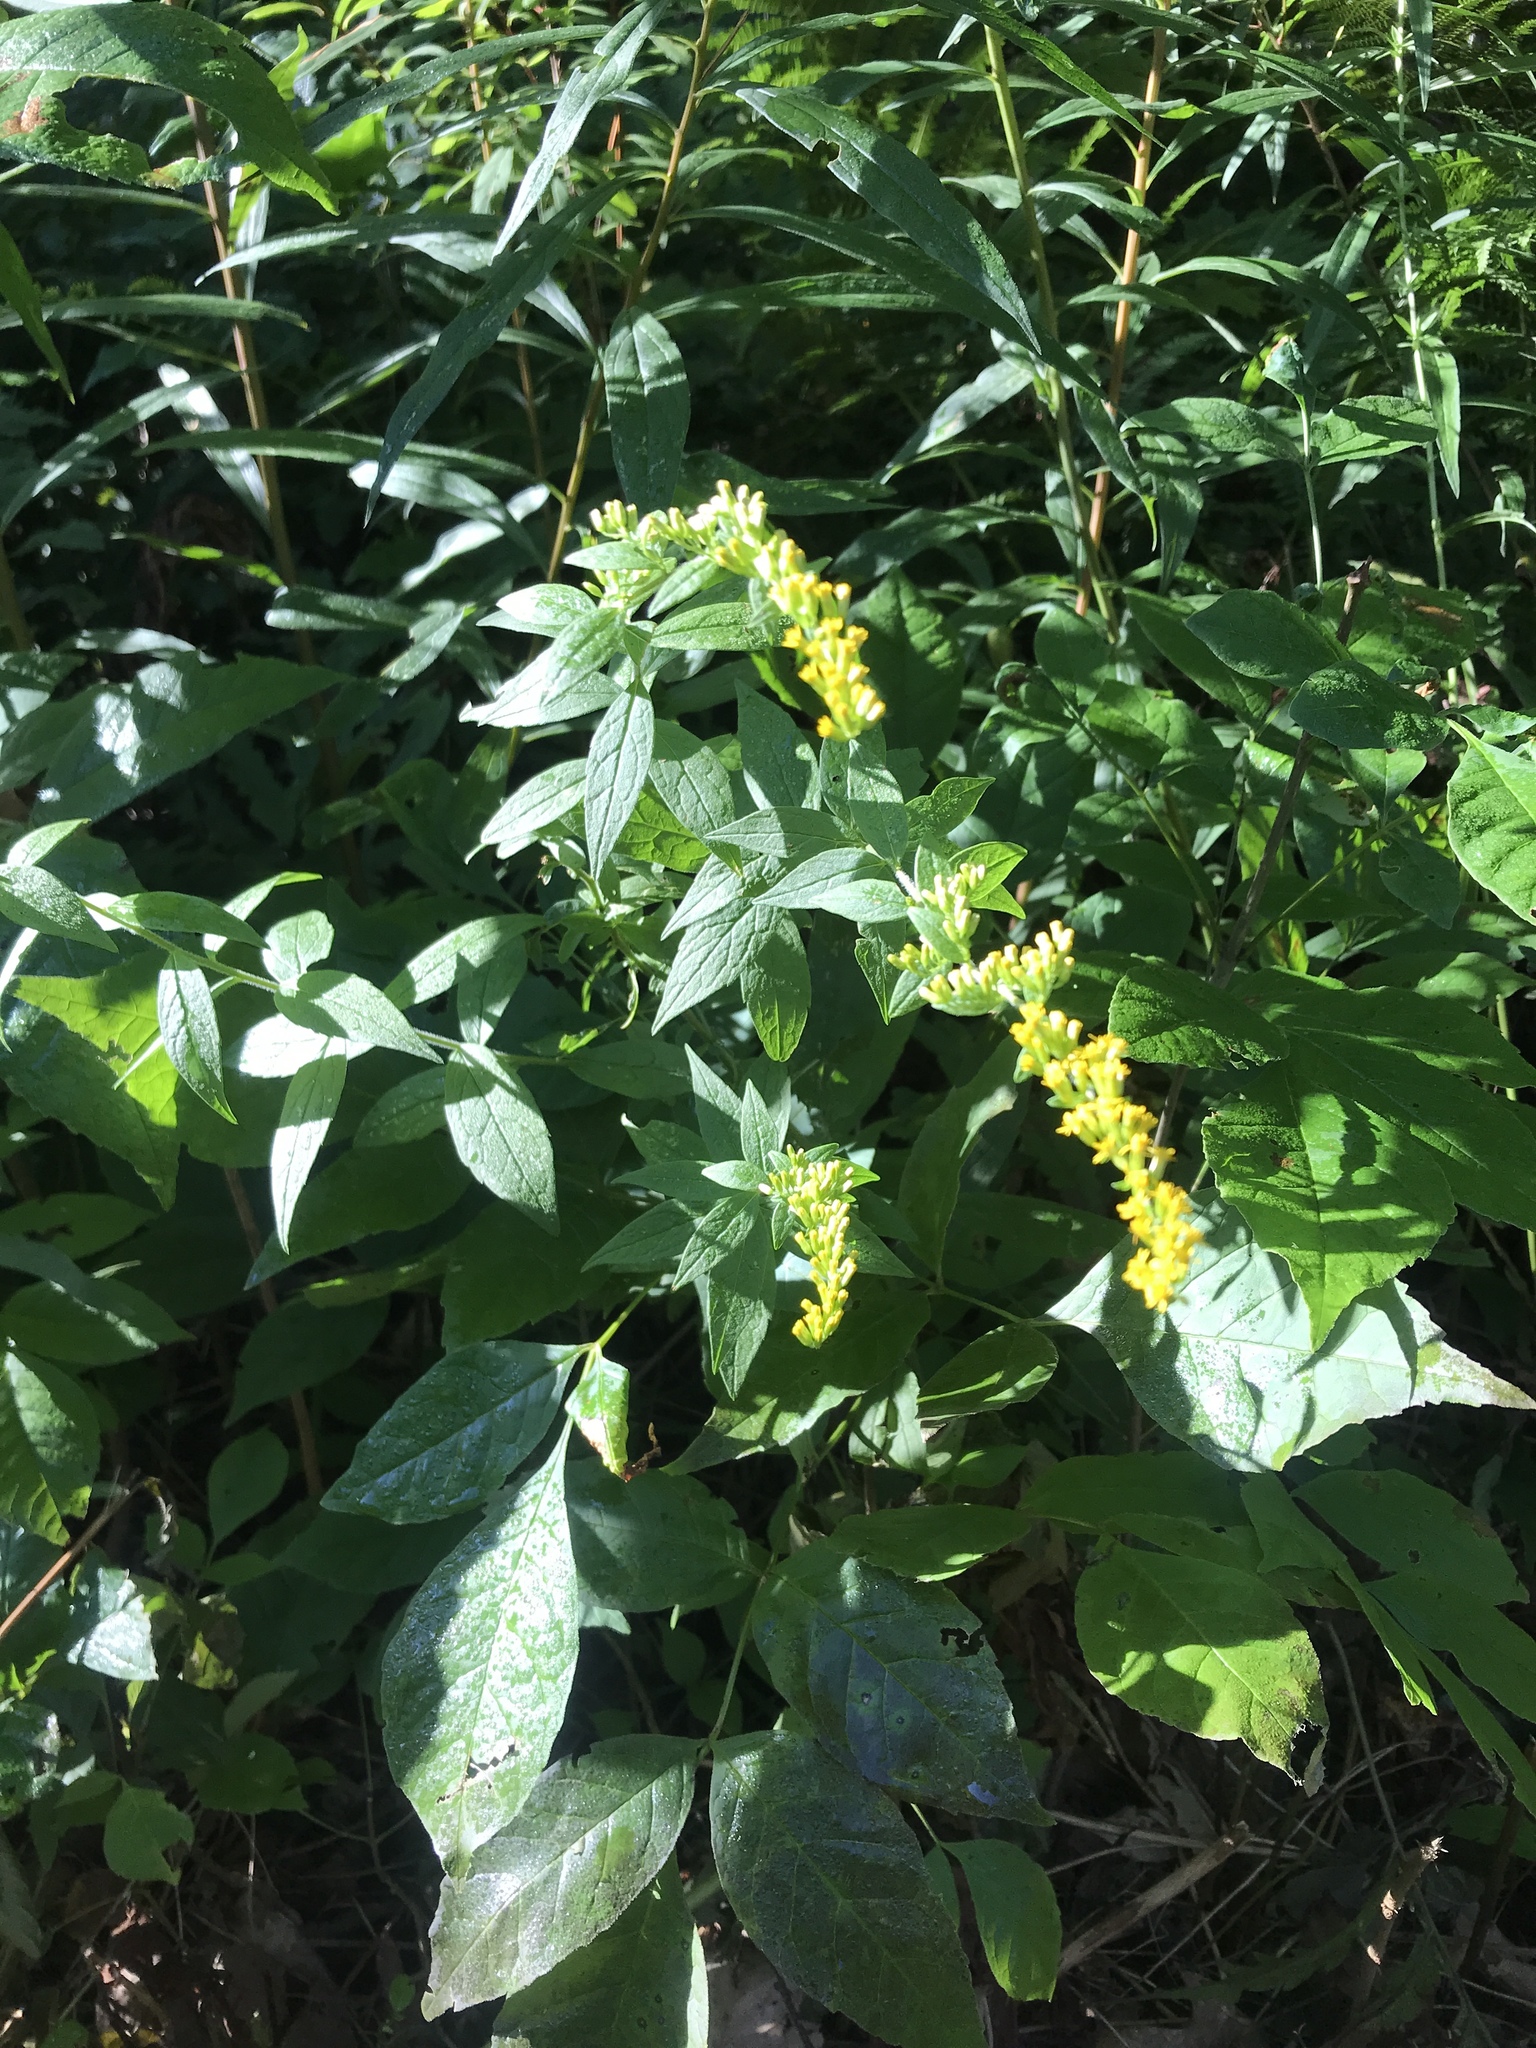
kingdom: Plantae
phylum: Tracheophyta
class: Magnoliopsida
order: Asterales
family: Asteraceae
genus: Solidago
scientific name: Solidago rugosa
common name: Rough-stemmed goldenrod
